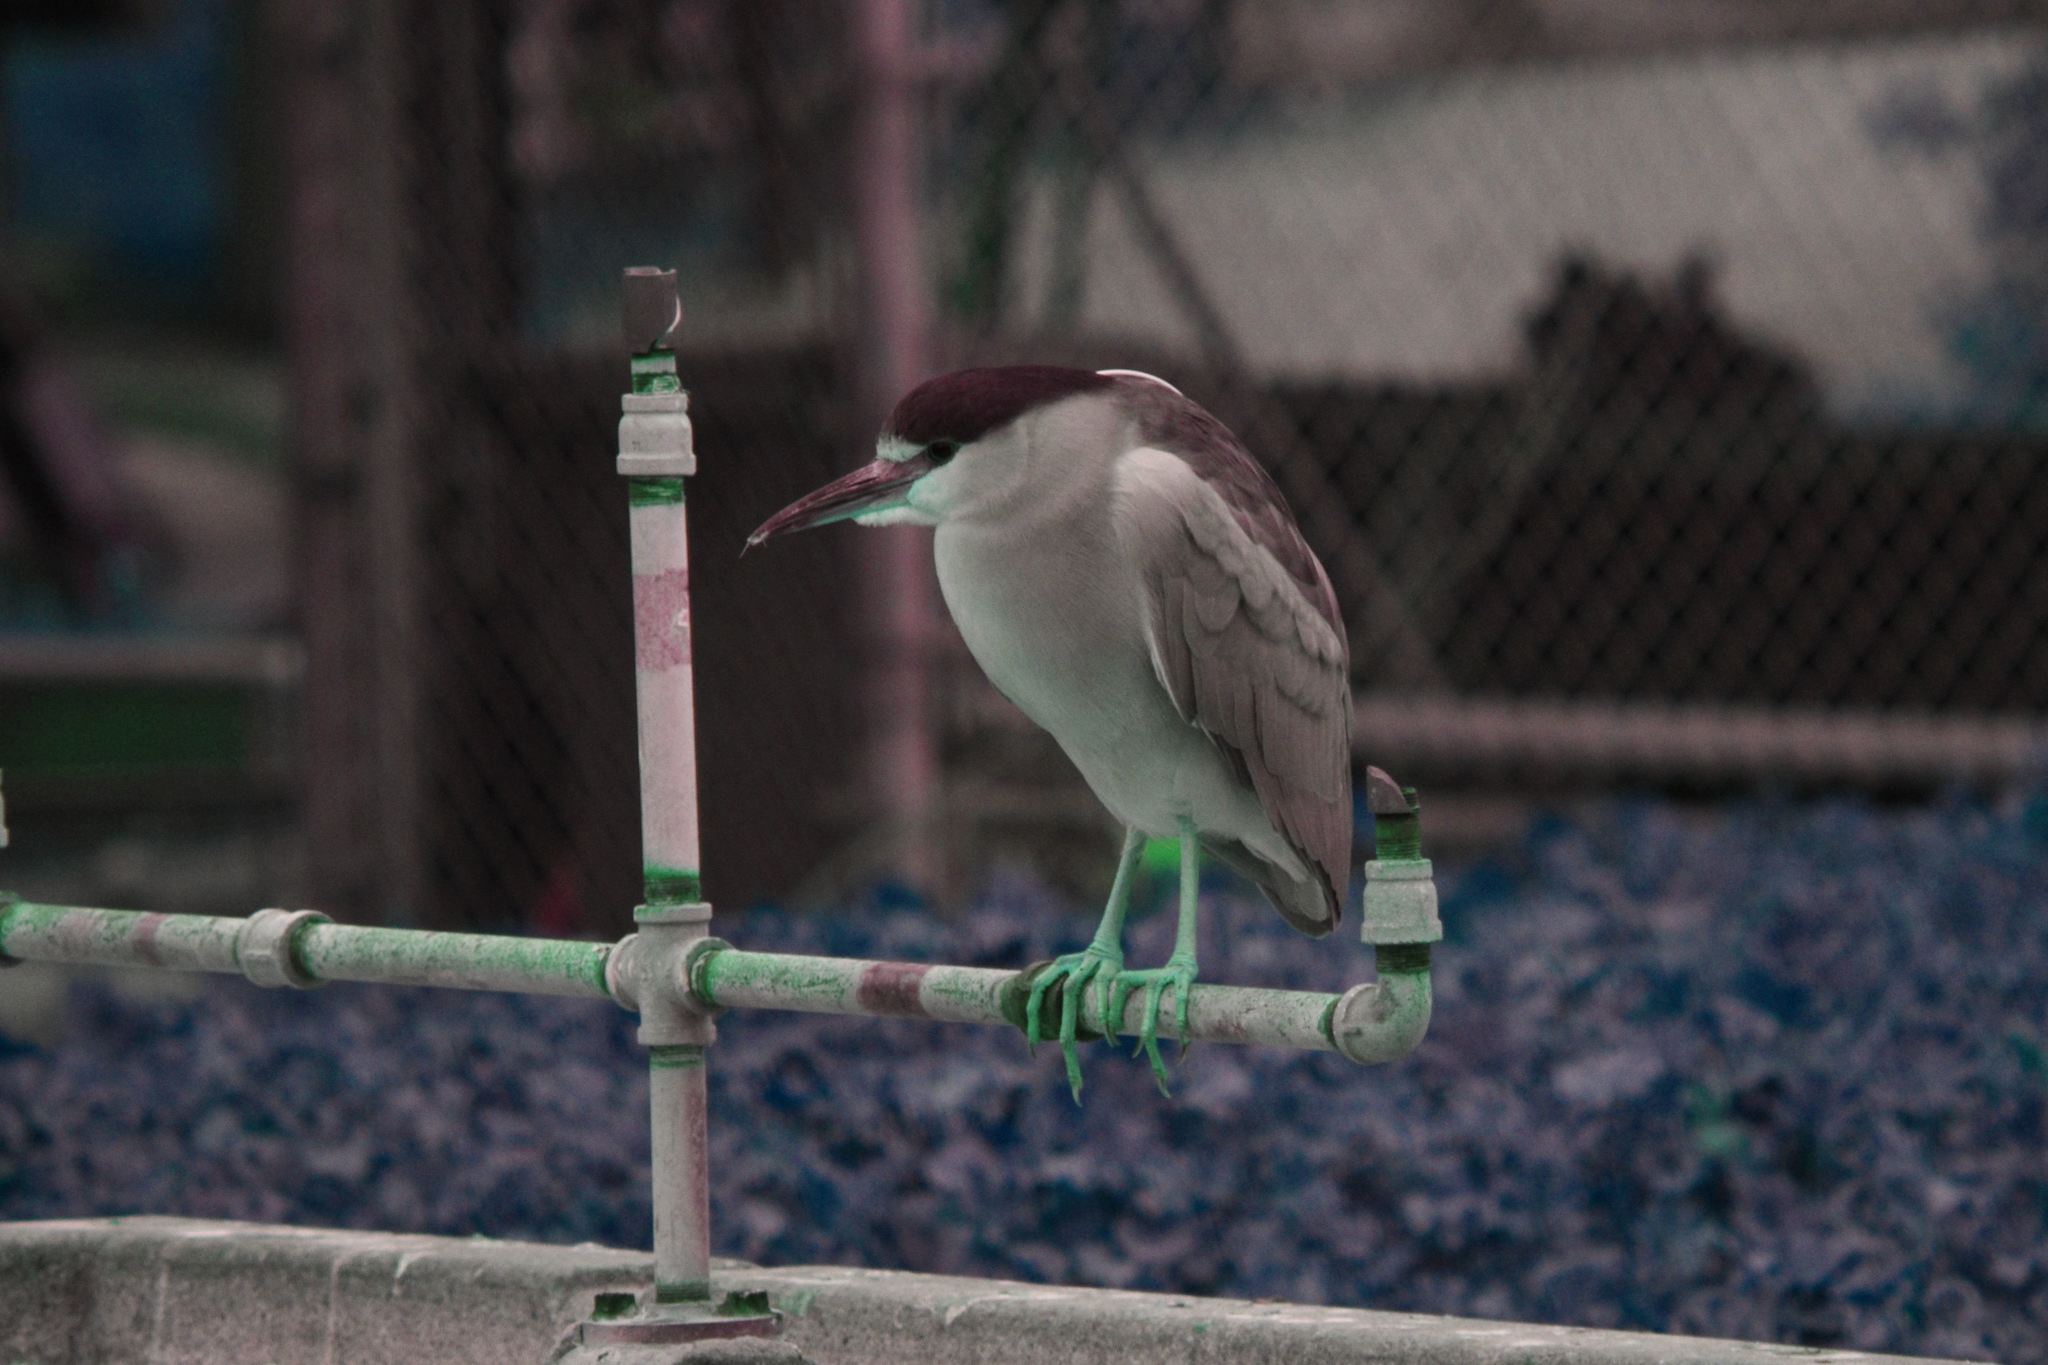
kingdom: Animalia
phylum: Chordata
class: Aves
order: Pelecaniformes
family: Ardeidae
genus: Nycticorax
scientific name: Nycticorax nycticorax
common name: Black-crowned night heron
